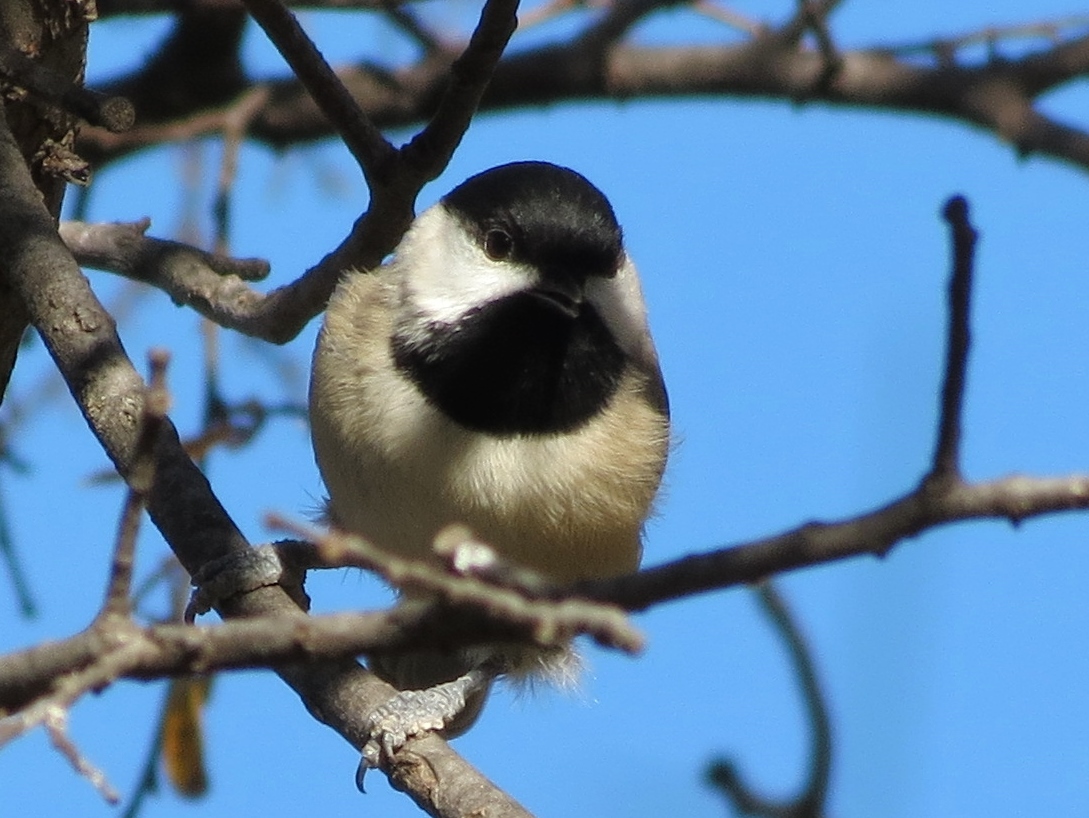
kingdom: Animalia
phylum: Chordata
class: Aves
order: Passeriformes
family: Paridae
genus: Poecile
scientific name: Poecile carolinensis
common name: Carolina chickadee
